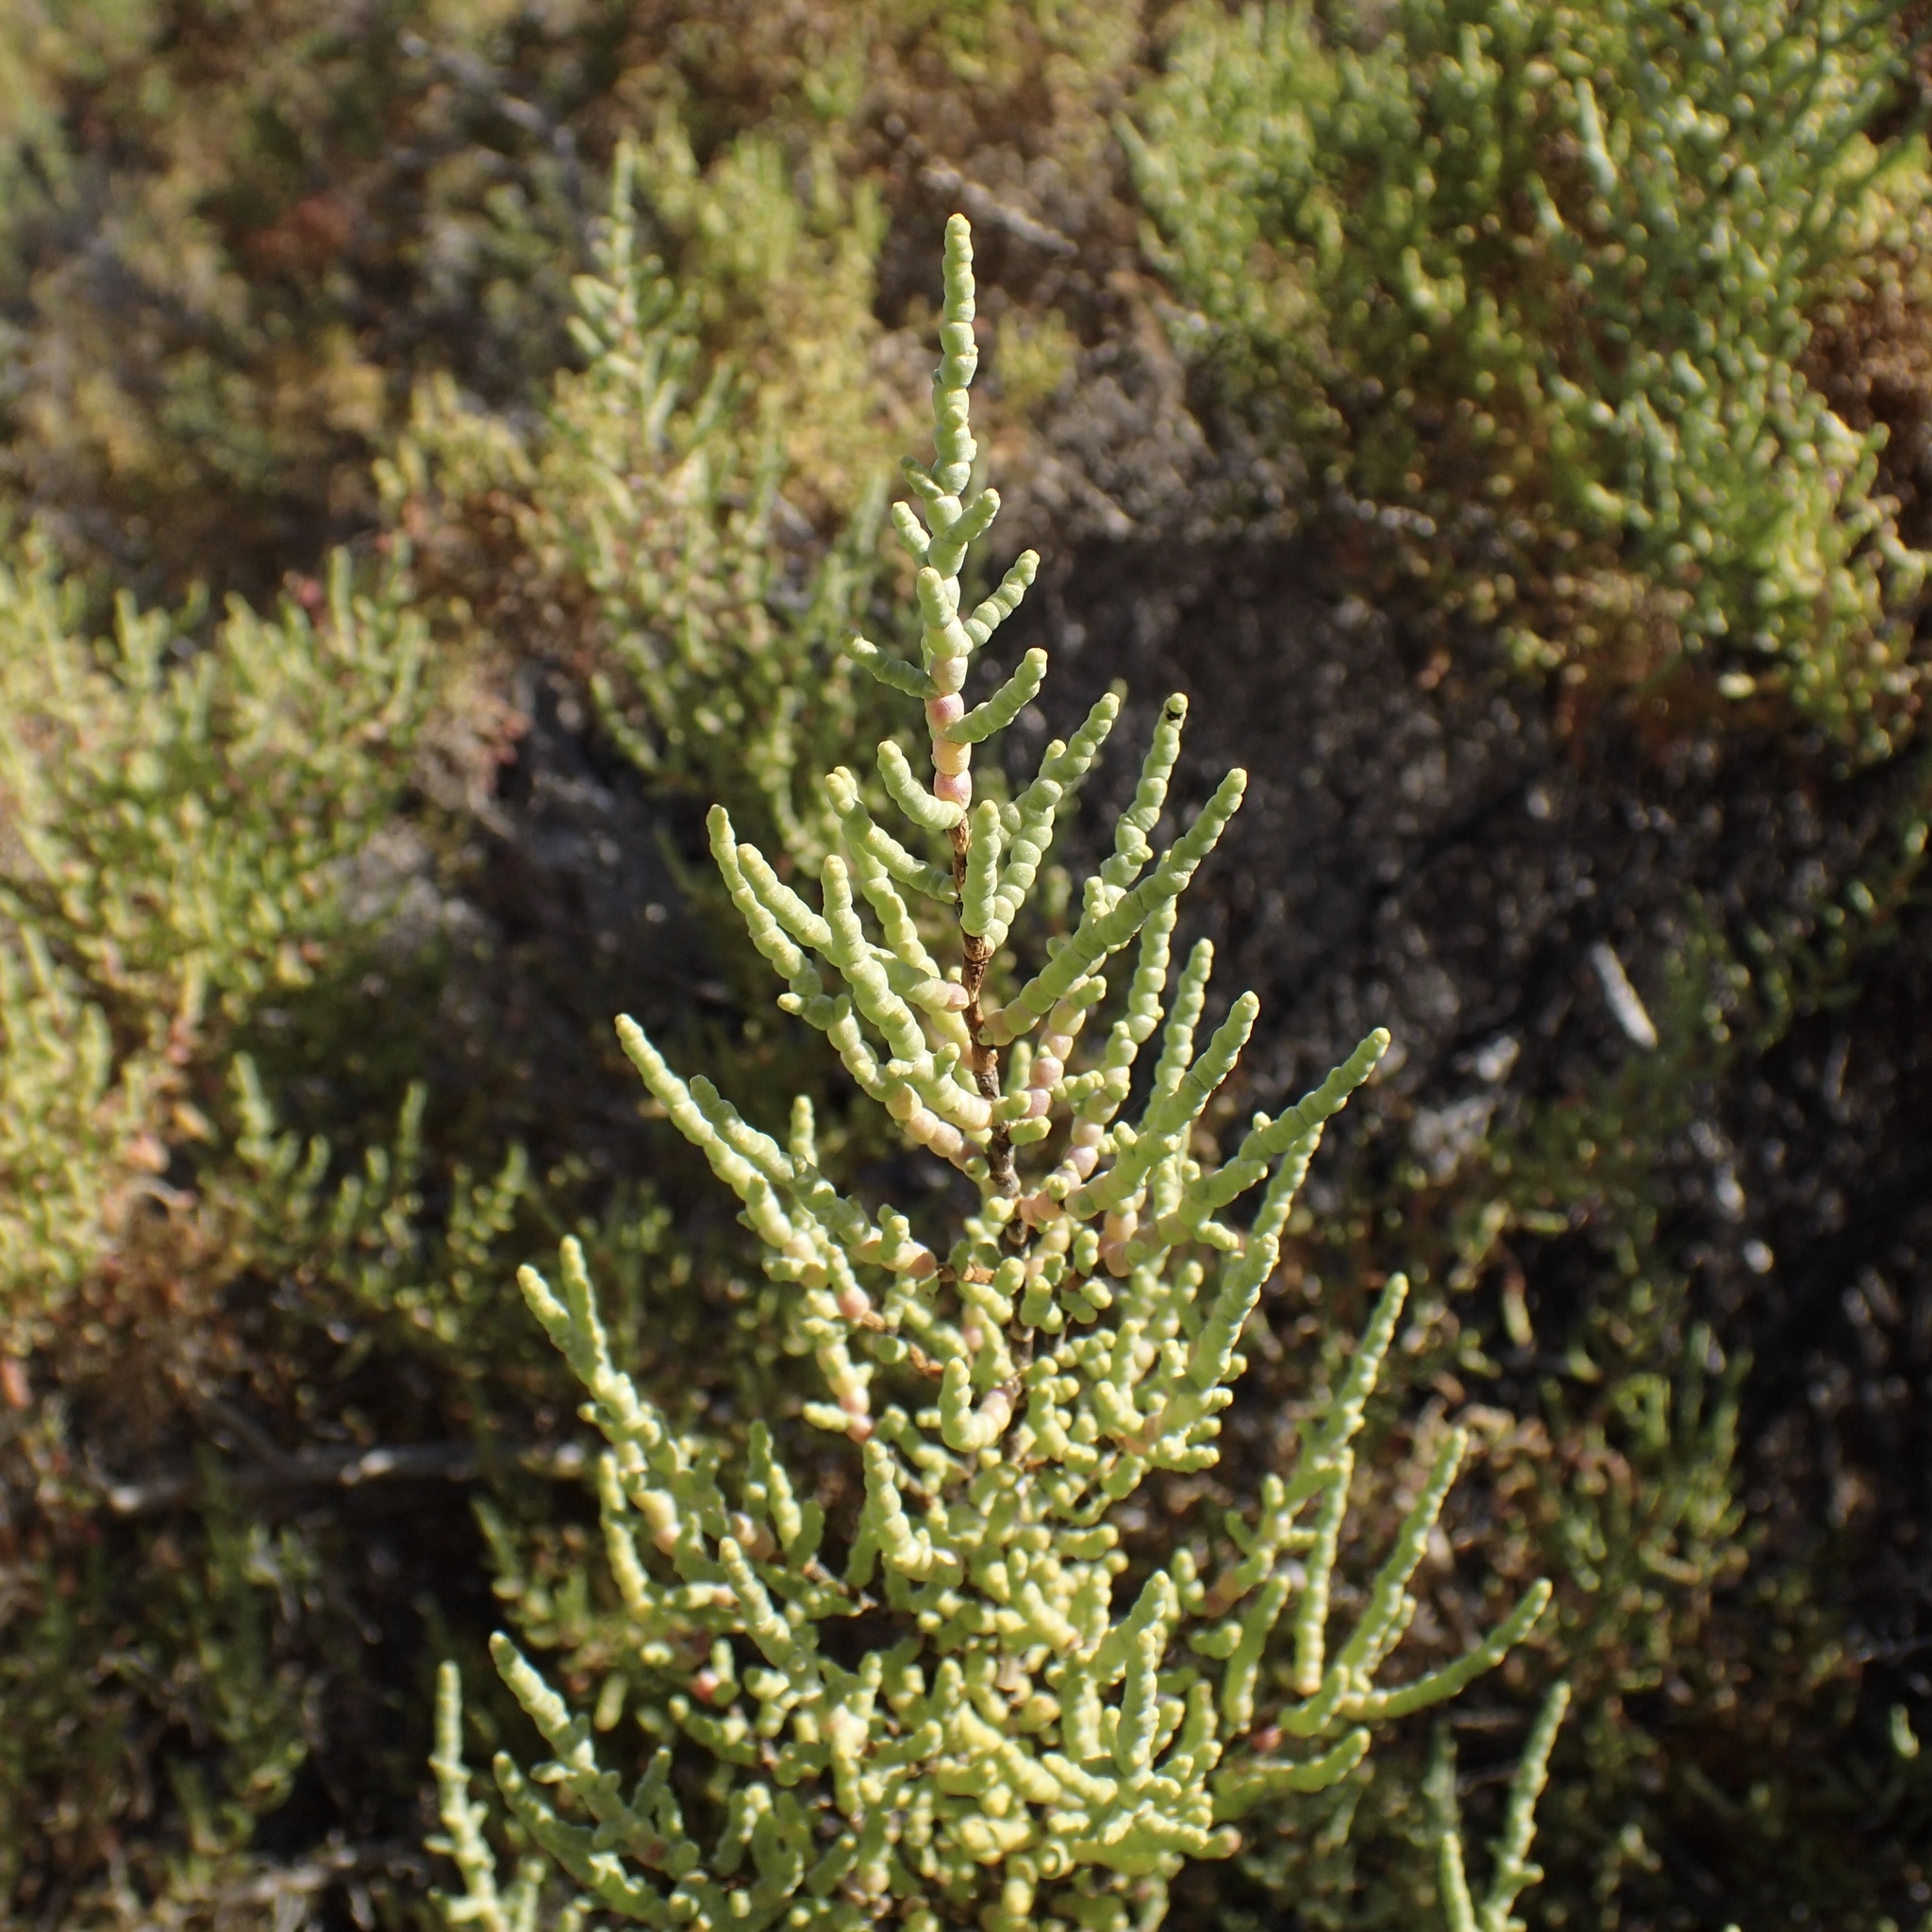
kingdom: Plantae
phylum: Tracheophyta
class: Magnoliopsida
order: Caryophyllales
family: Amaranthaceae
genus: Allenrolfea
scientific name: Allenrolfea occidentalis
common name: Iodine-bush
